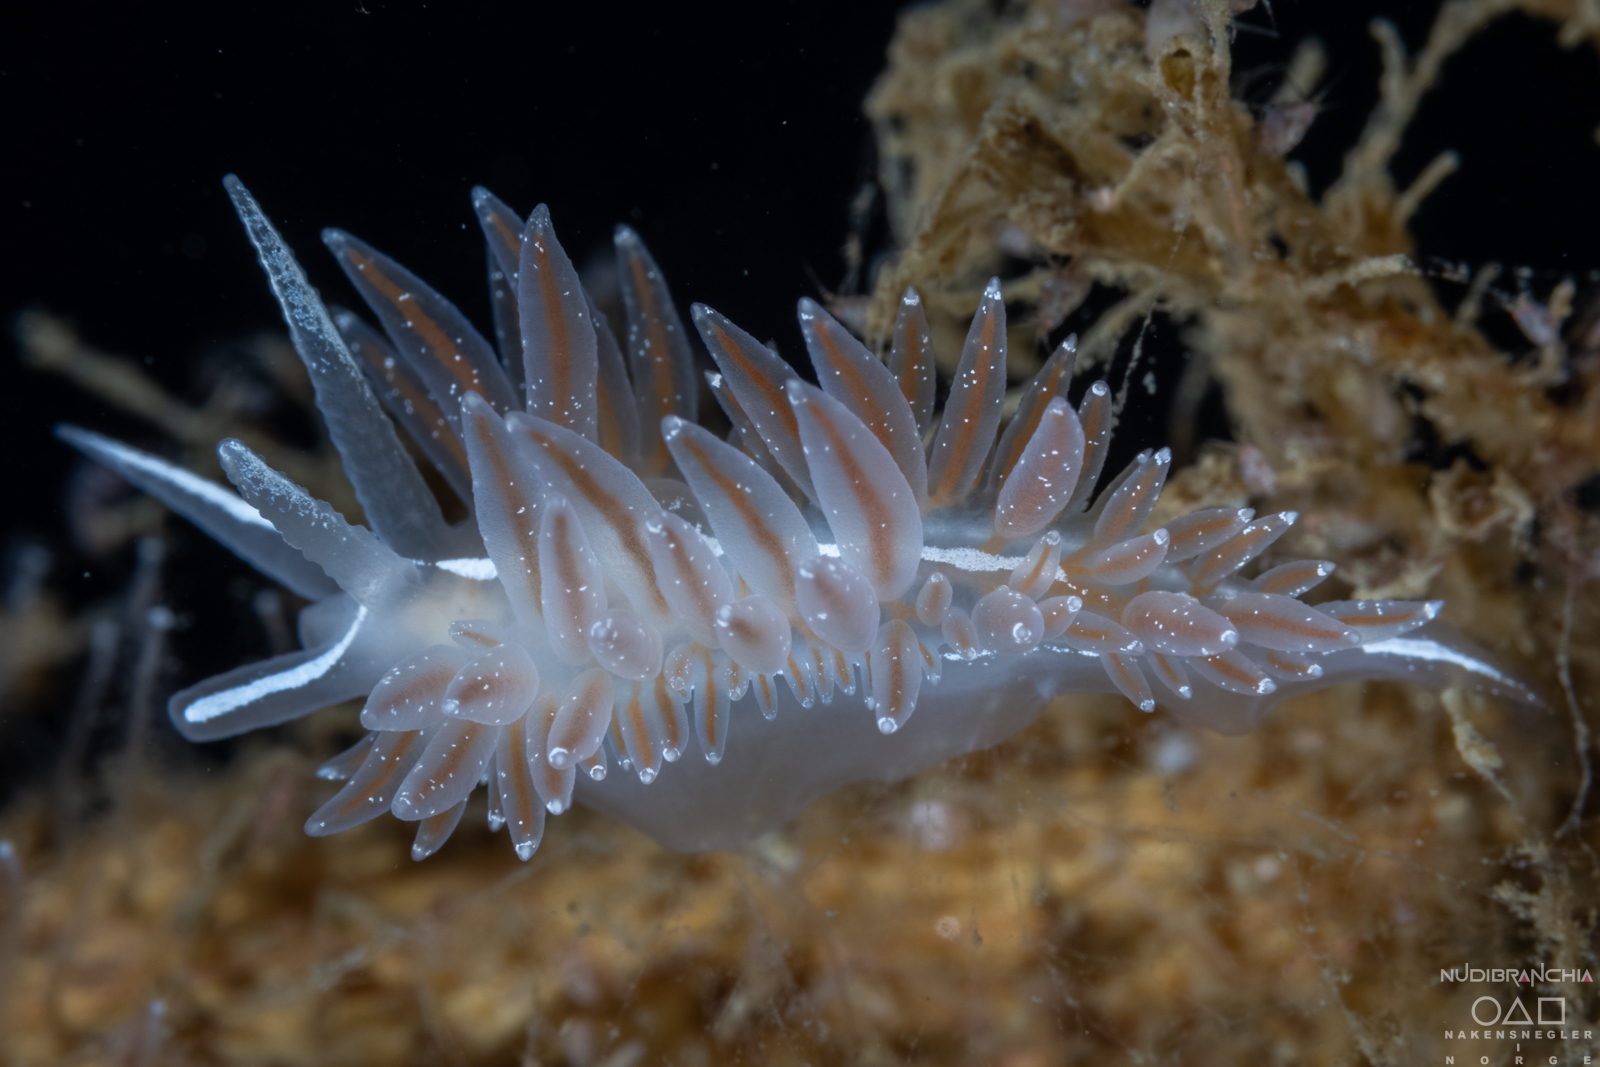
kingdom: Animalia
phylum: Mollusca
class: Gastropoda
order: Nudibranchia
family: Coryphellidae
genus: Coryphella
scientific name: Coryphella monicae
